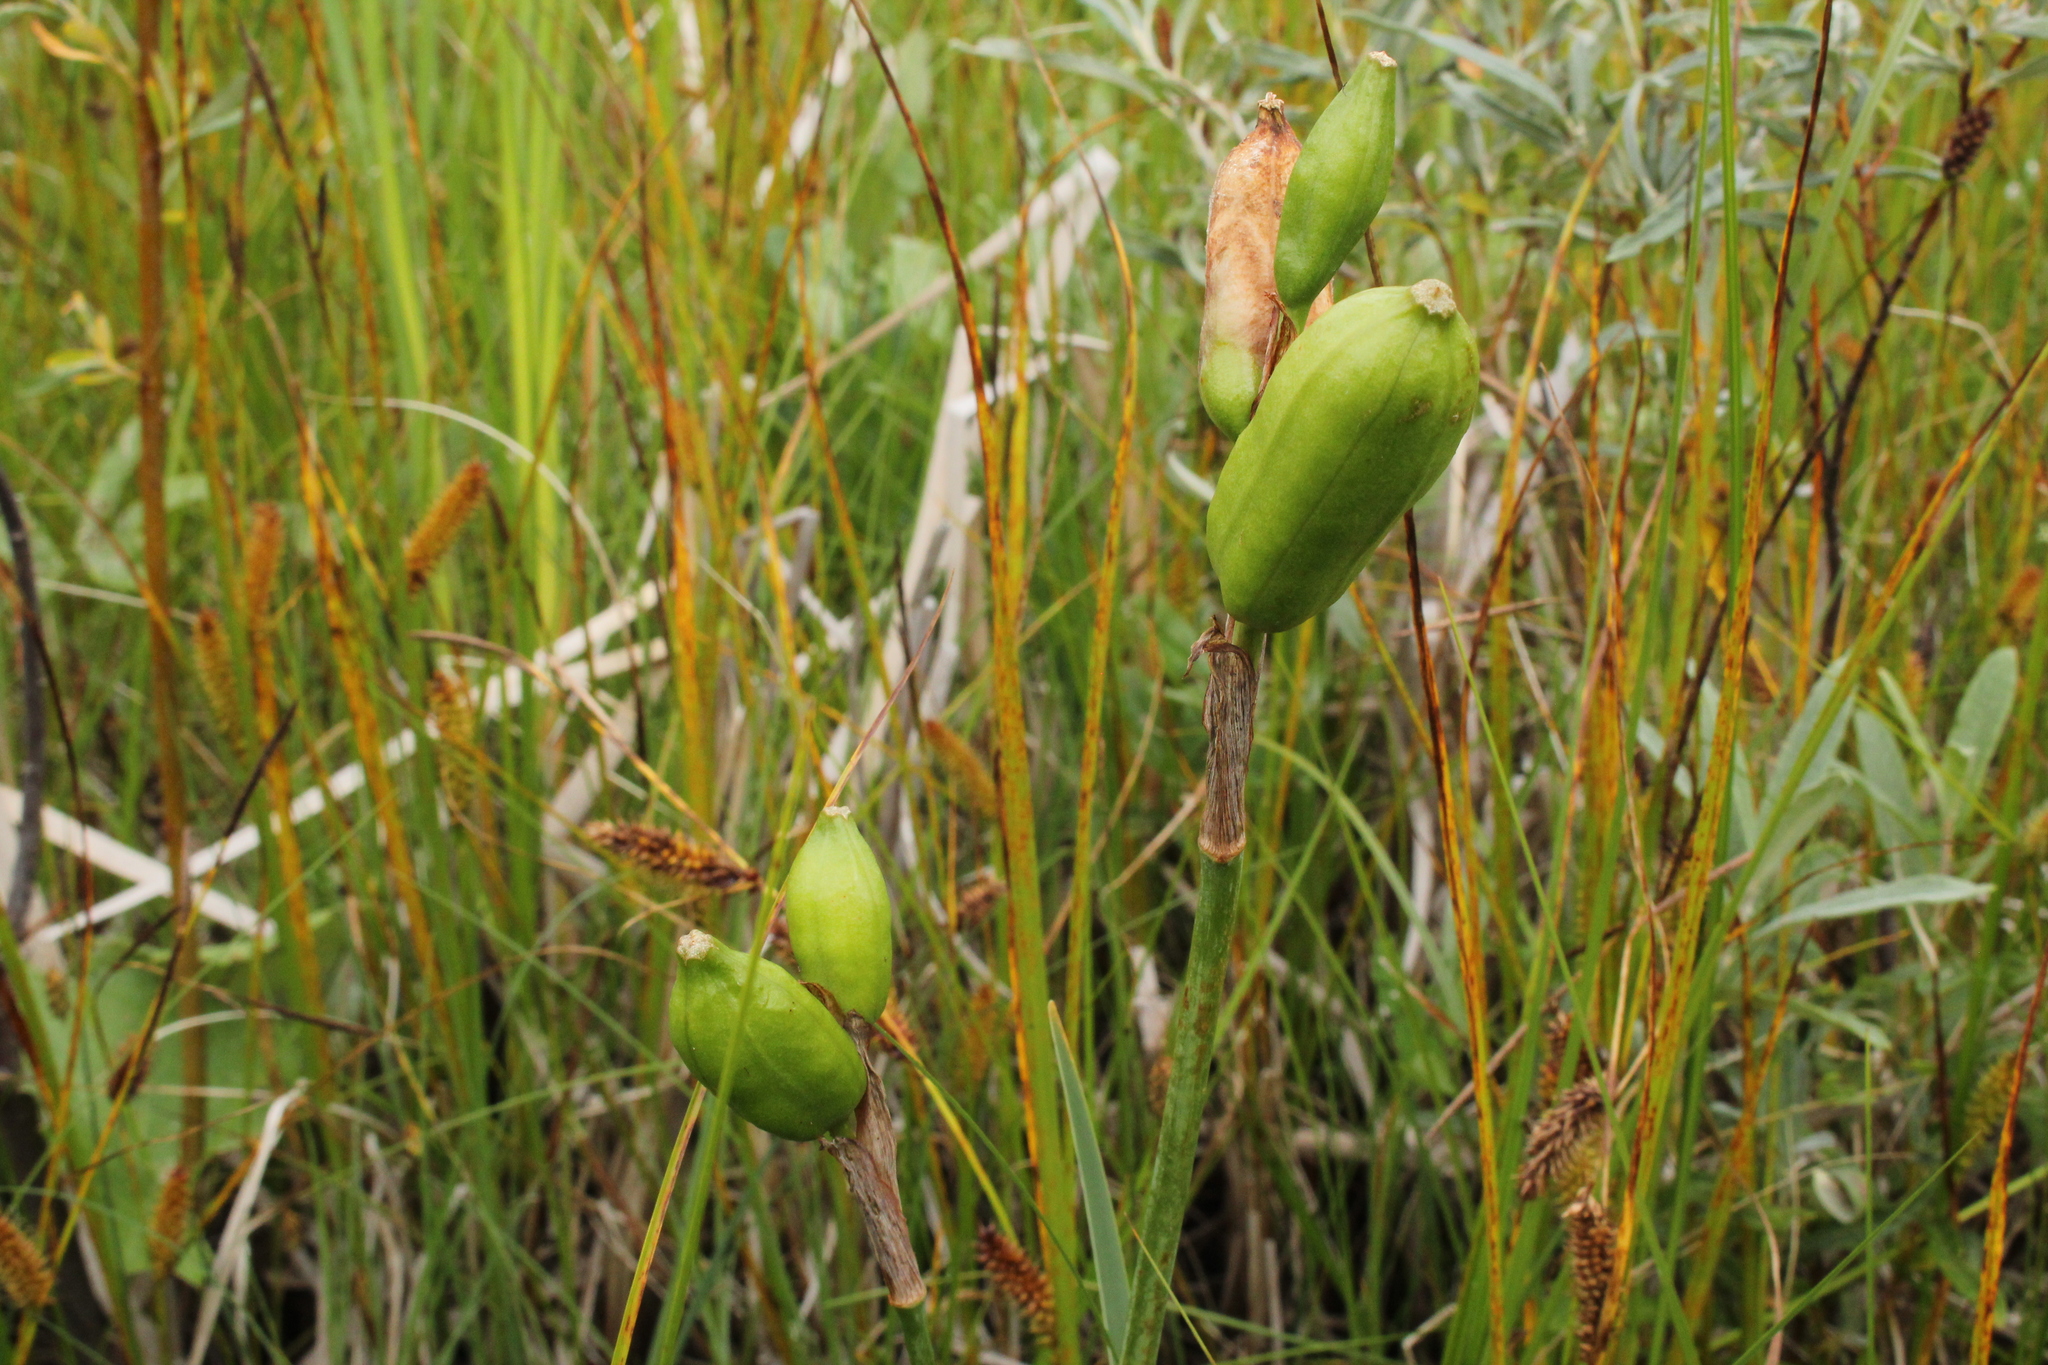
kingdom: Plantae
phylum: Tracheophyta
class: Liliopsida
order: Asparagales
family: Iridaceae
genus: Iris
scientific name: Iris versicolor
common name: Purple iris
